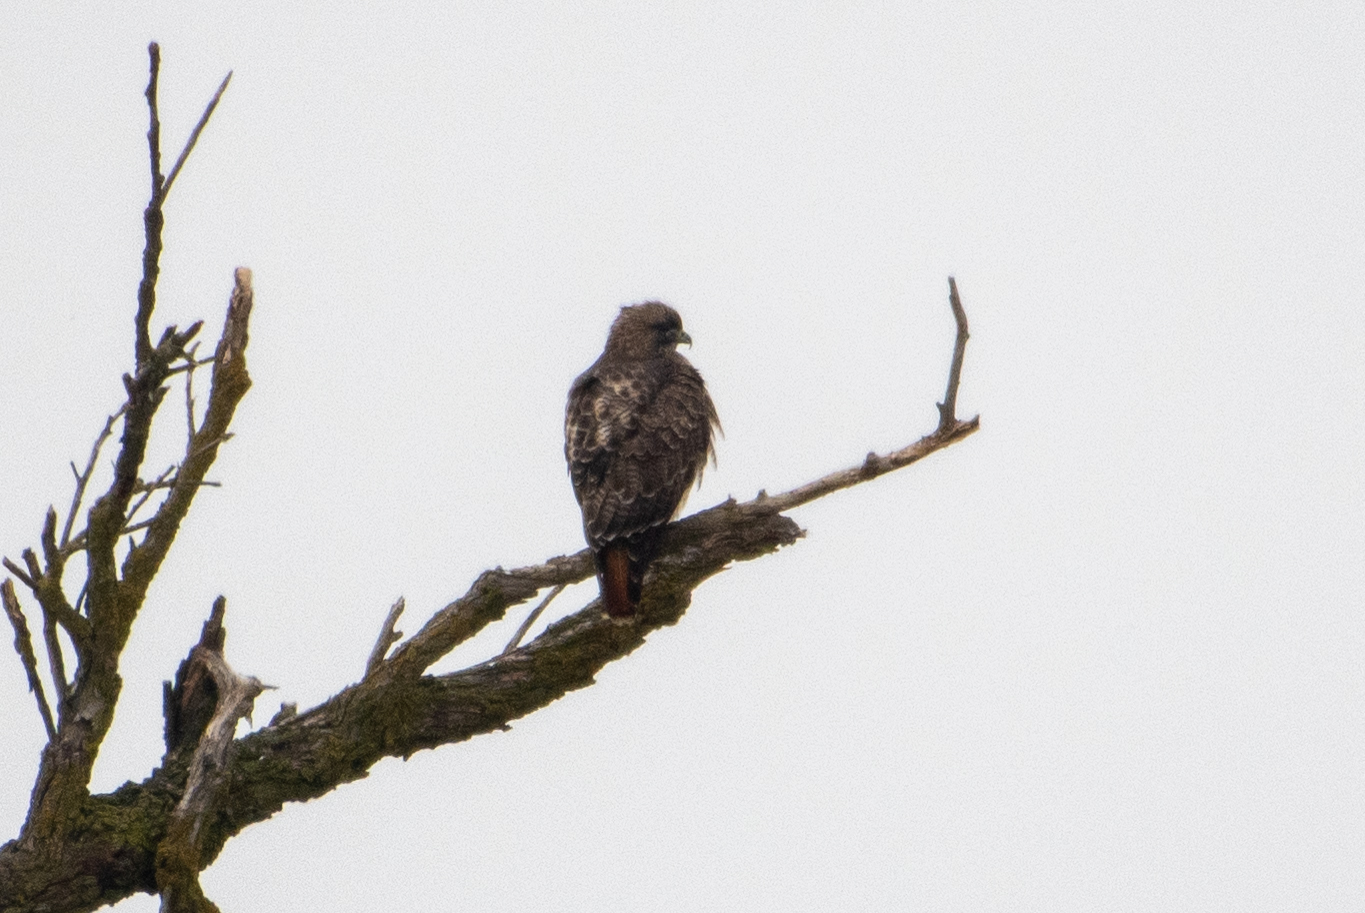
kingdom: Animalia
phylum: Chordata
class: Aves
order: Accipitriformes
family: Accipitridae
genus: Buteo
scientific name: Buteo jamaicensis
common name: Red-tailed hawk
